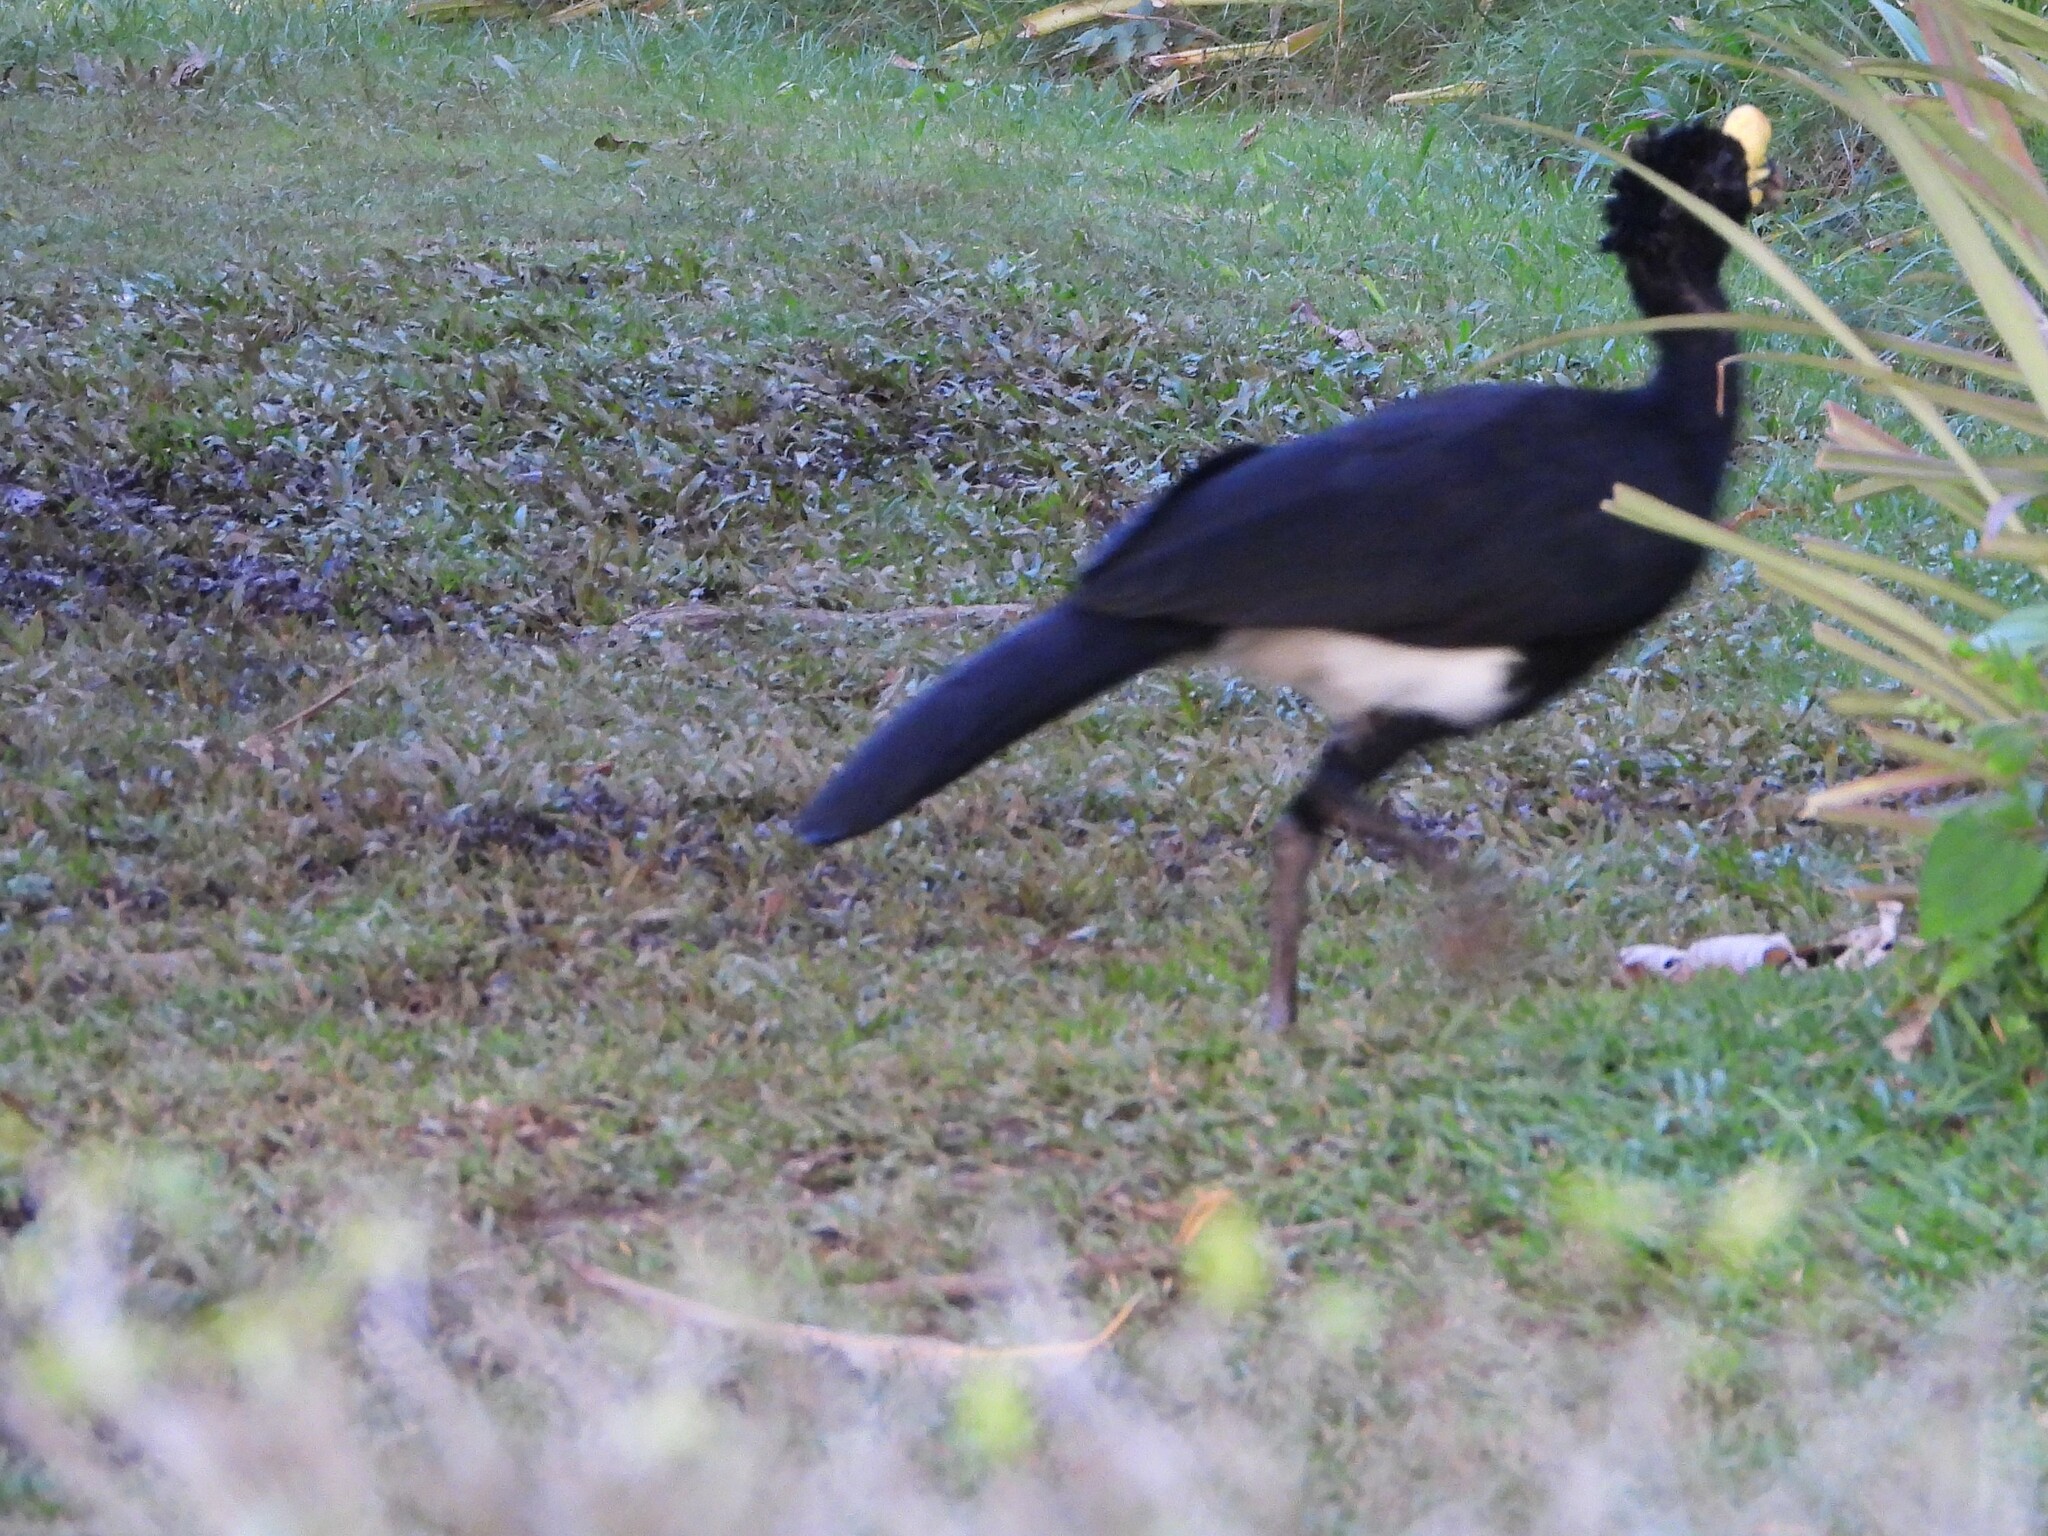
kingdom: Animalia
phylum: Chordata
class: Aves
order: Galliformes
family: Cracidae
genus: Crax
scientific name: Crax rubra
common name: Great curassow
